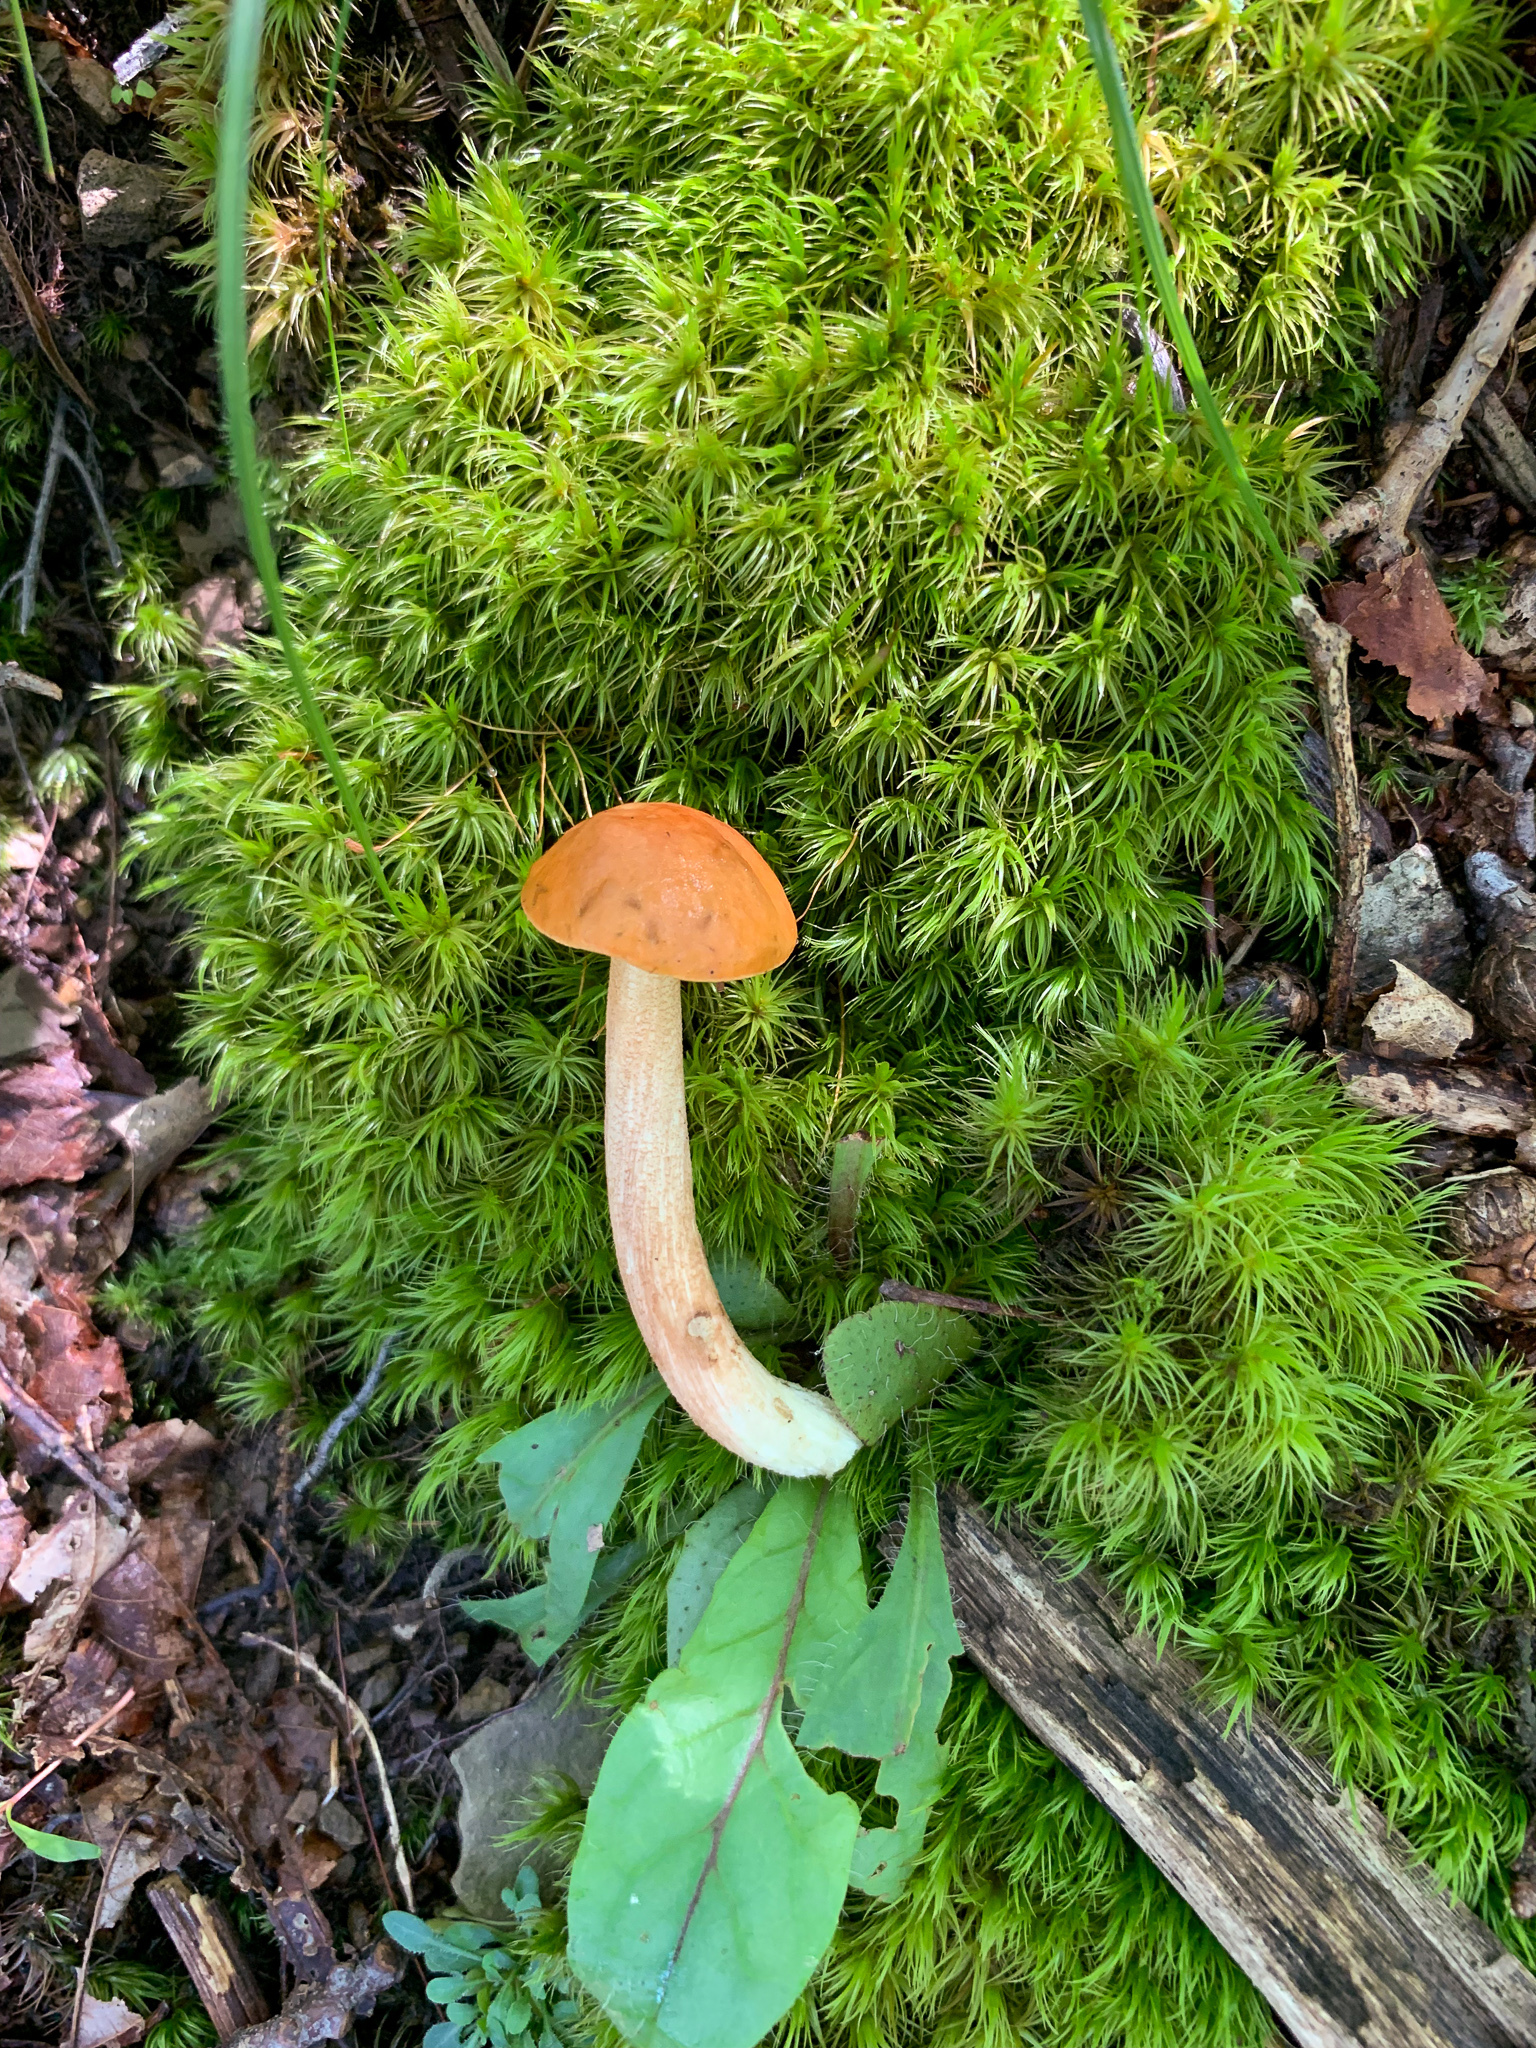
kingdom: Fungi
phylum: Basidiomycota
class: Agaricomycetes
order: Boletales
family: Boletaceae
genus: Leccinum
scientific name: Leccinum longicurvipes
